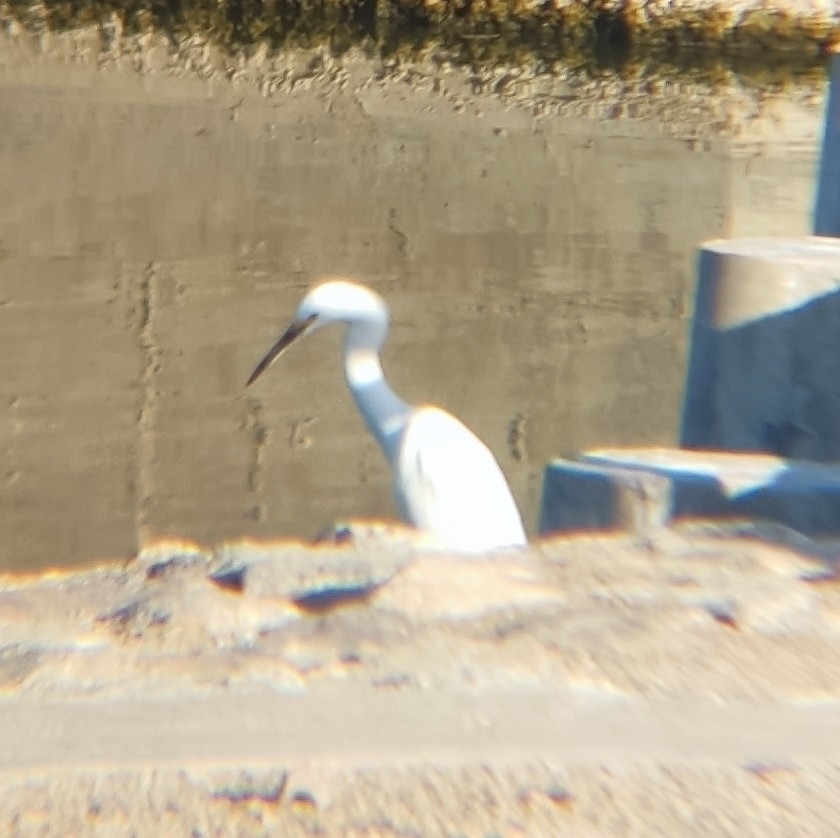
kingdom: Animalia
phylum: Chordata
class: Aves
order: Pelecaniformes
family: Ardeidae
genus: Egretta
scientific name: Egretta thula
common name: Snowy egret
